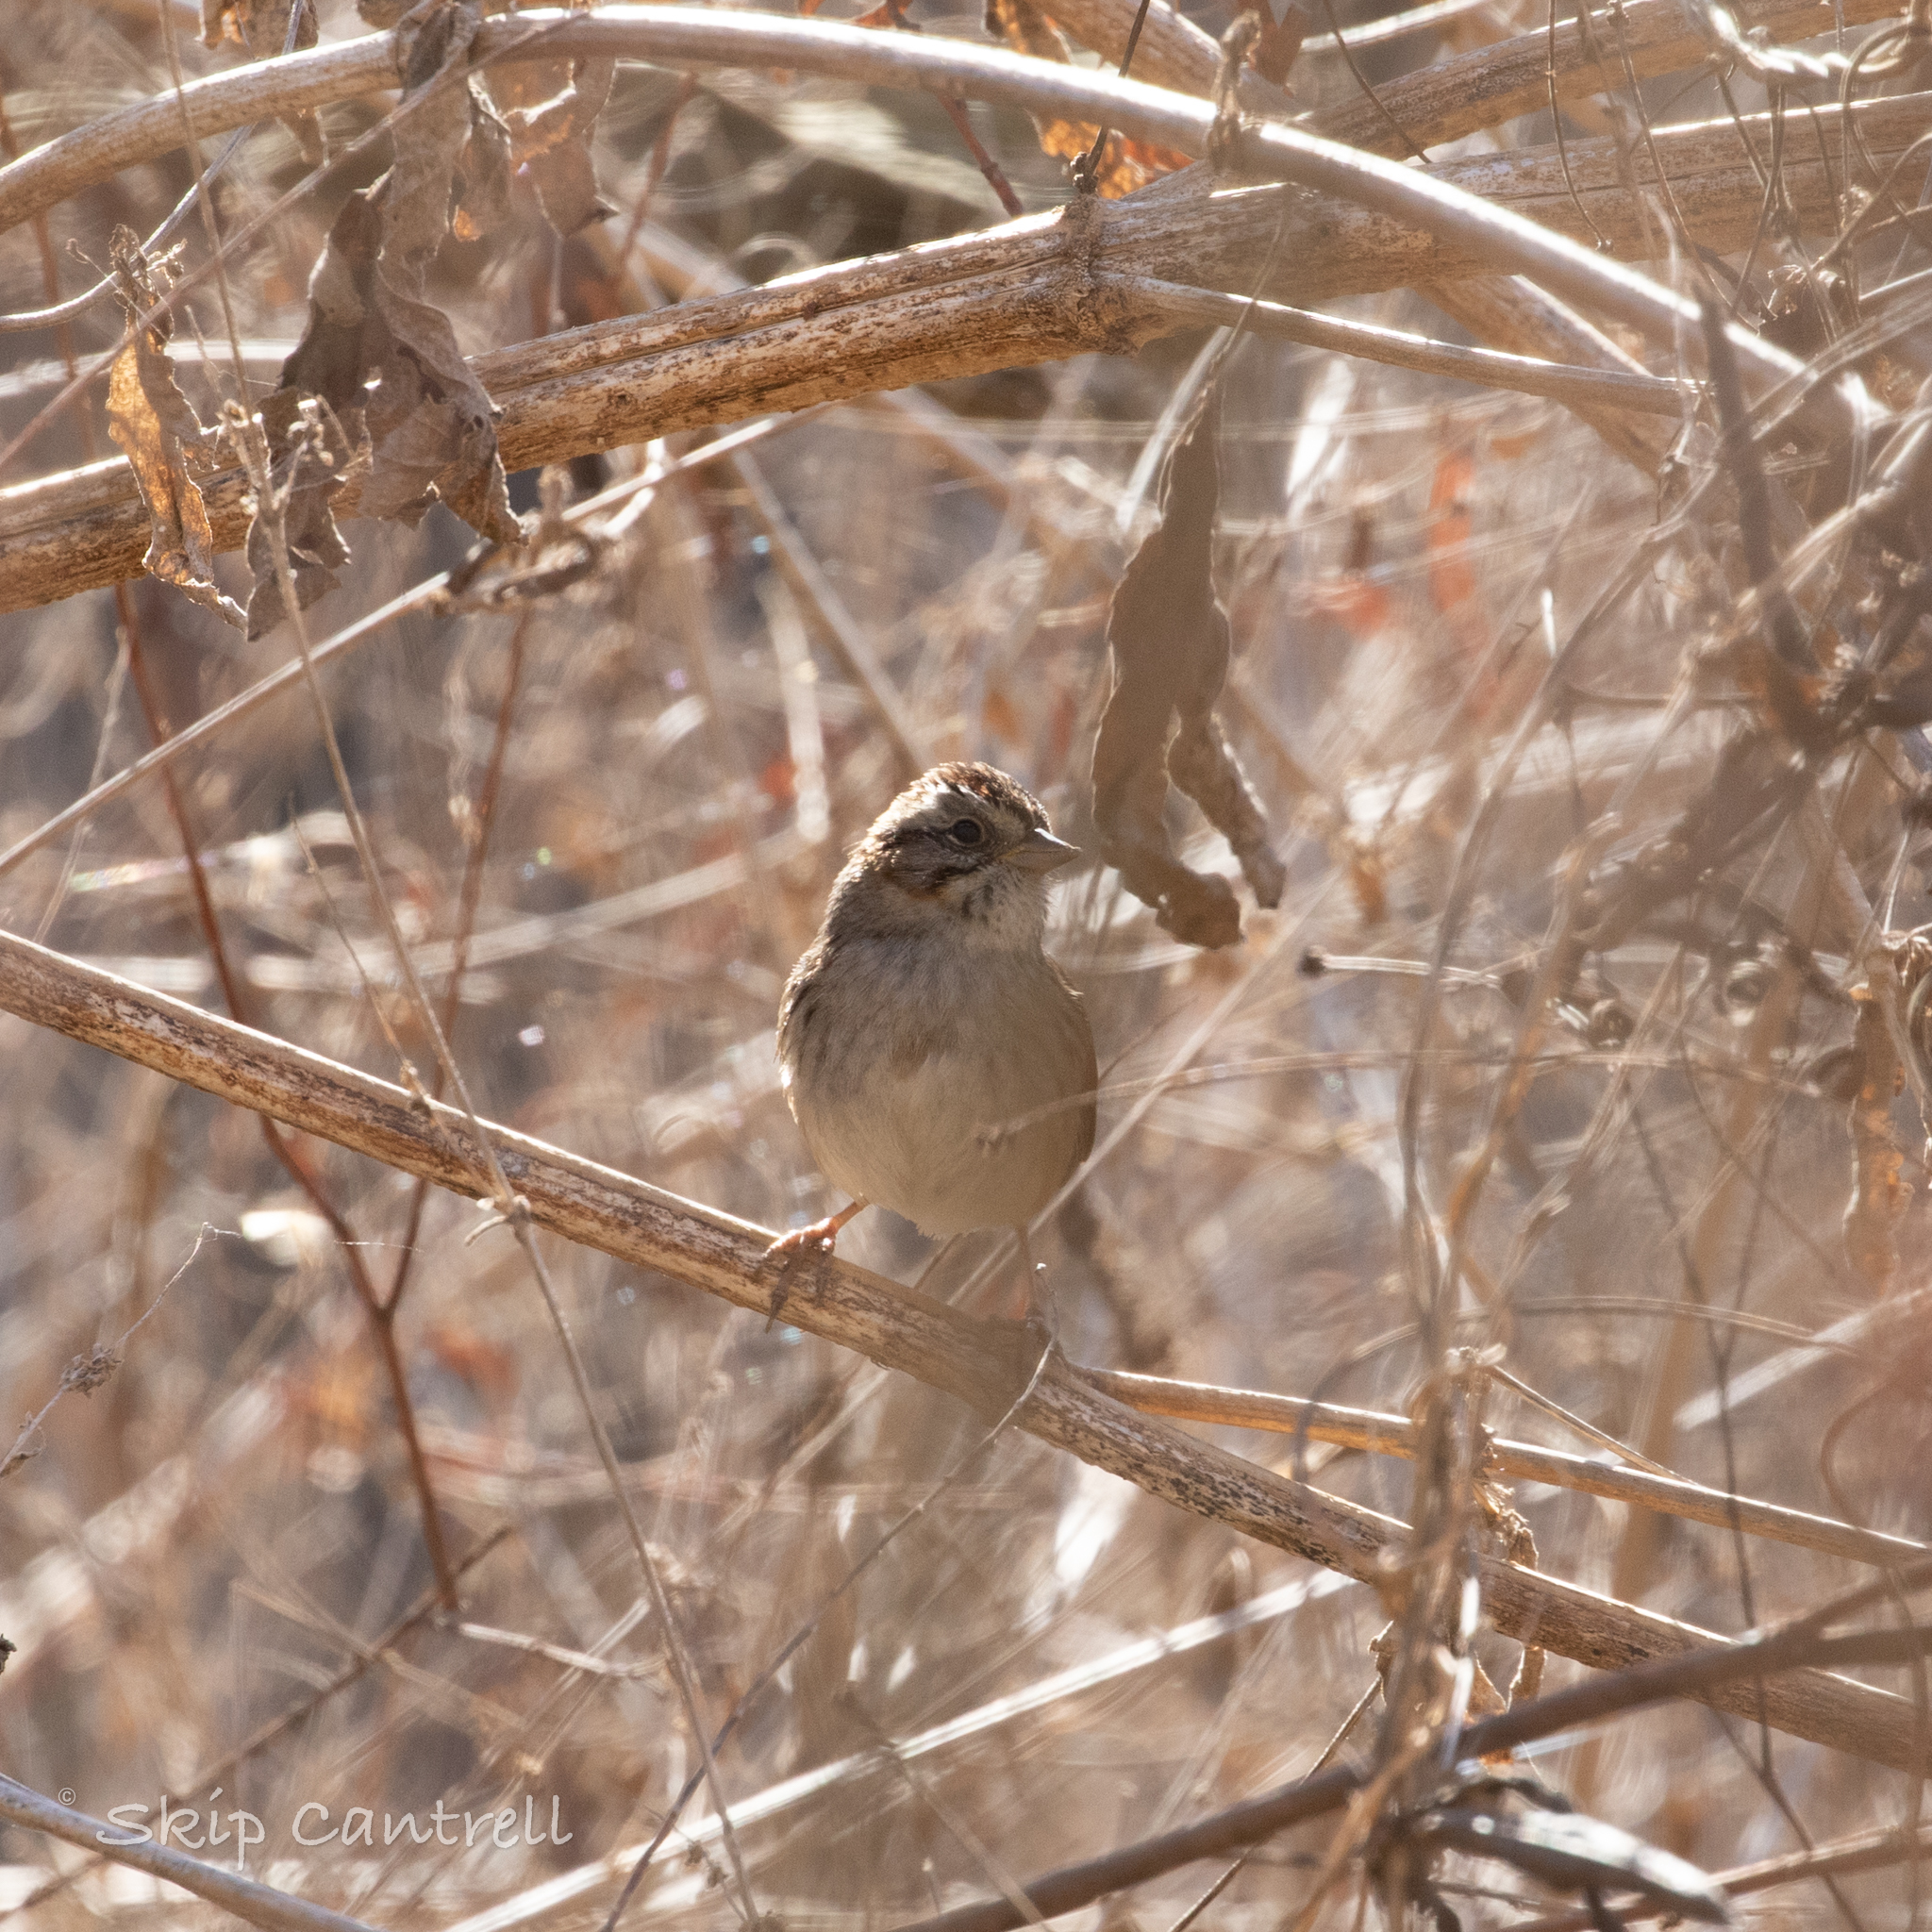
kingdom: Animalia
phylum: Chordata
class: Aves
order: Passeriformes
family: Passerellidae
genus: Melospiza
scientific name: Melospiza georgiana
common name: Swamp sparrow
